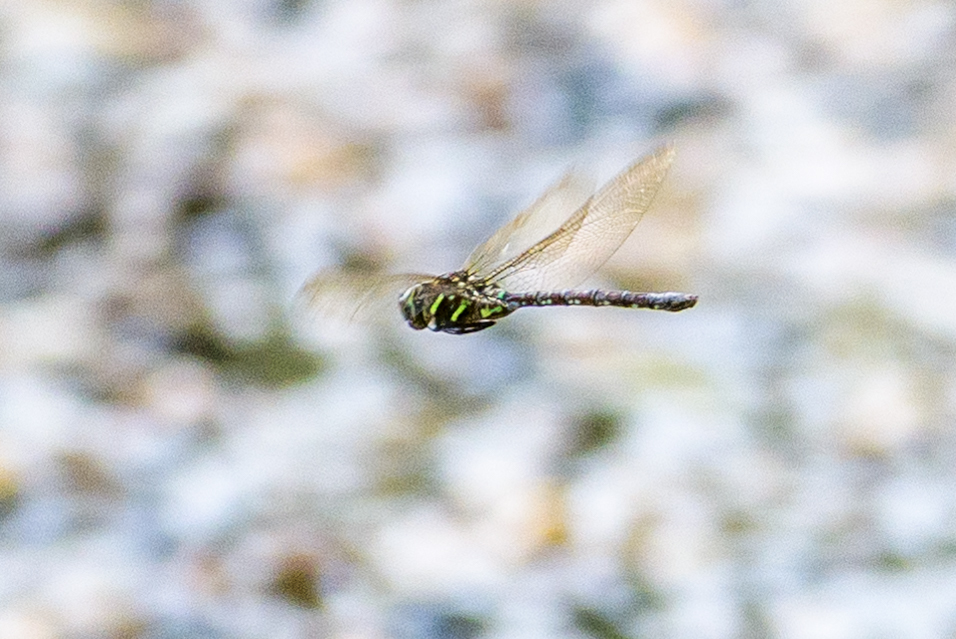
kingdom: Animalia
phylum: Arthropoda
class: Insecta
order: Odonata
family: Aeshnidae
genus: Aeshna
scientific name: Aeshna umbrosa
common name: Shadow darner
